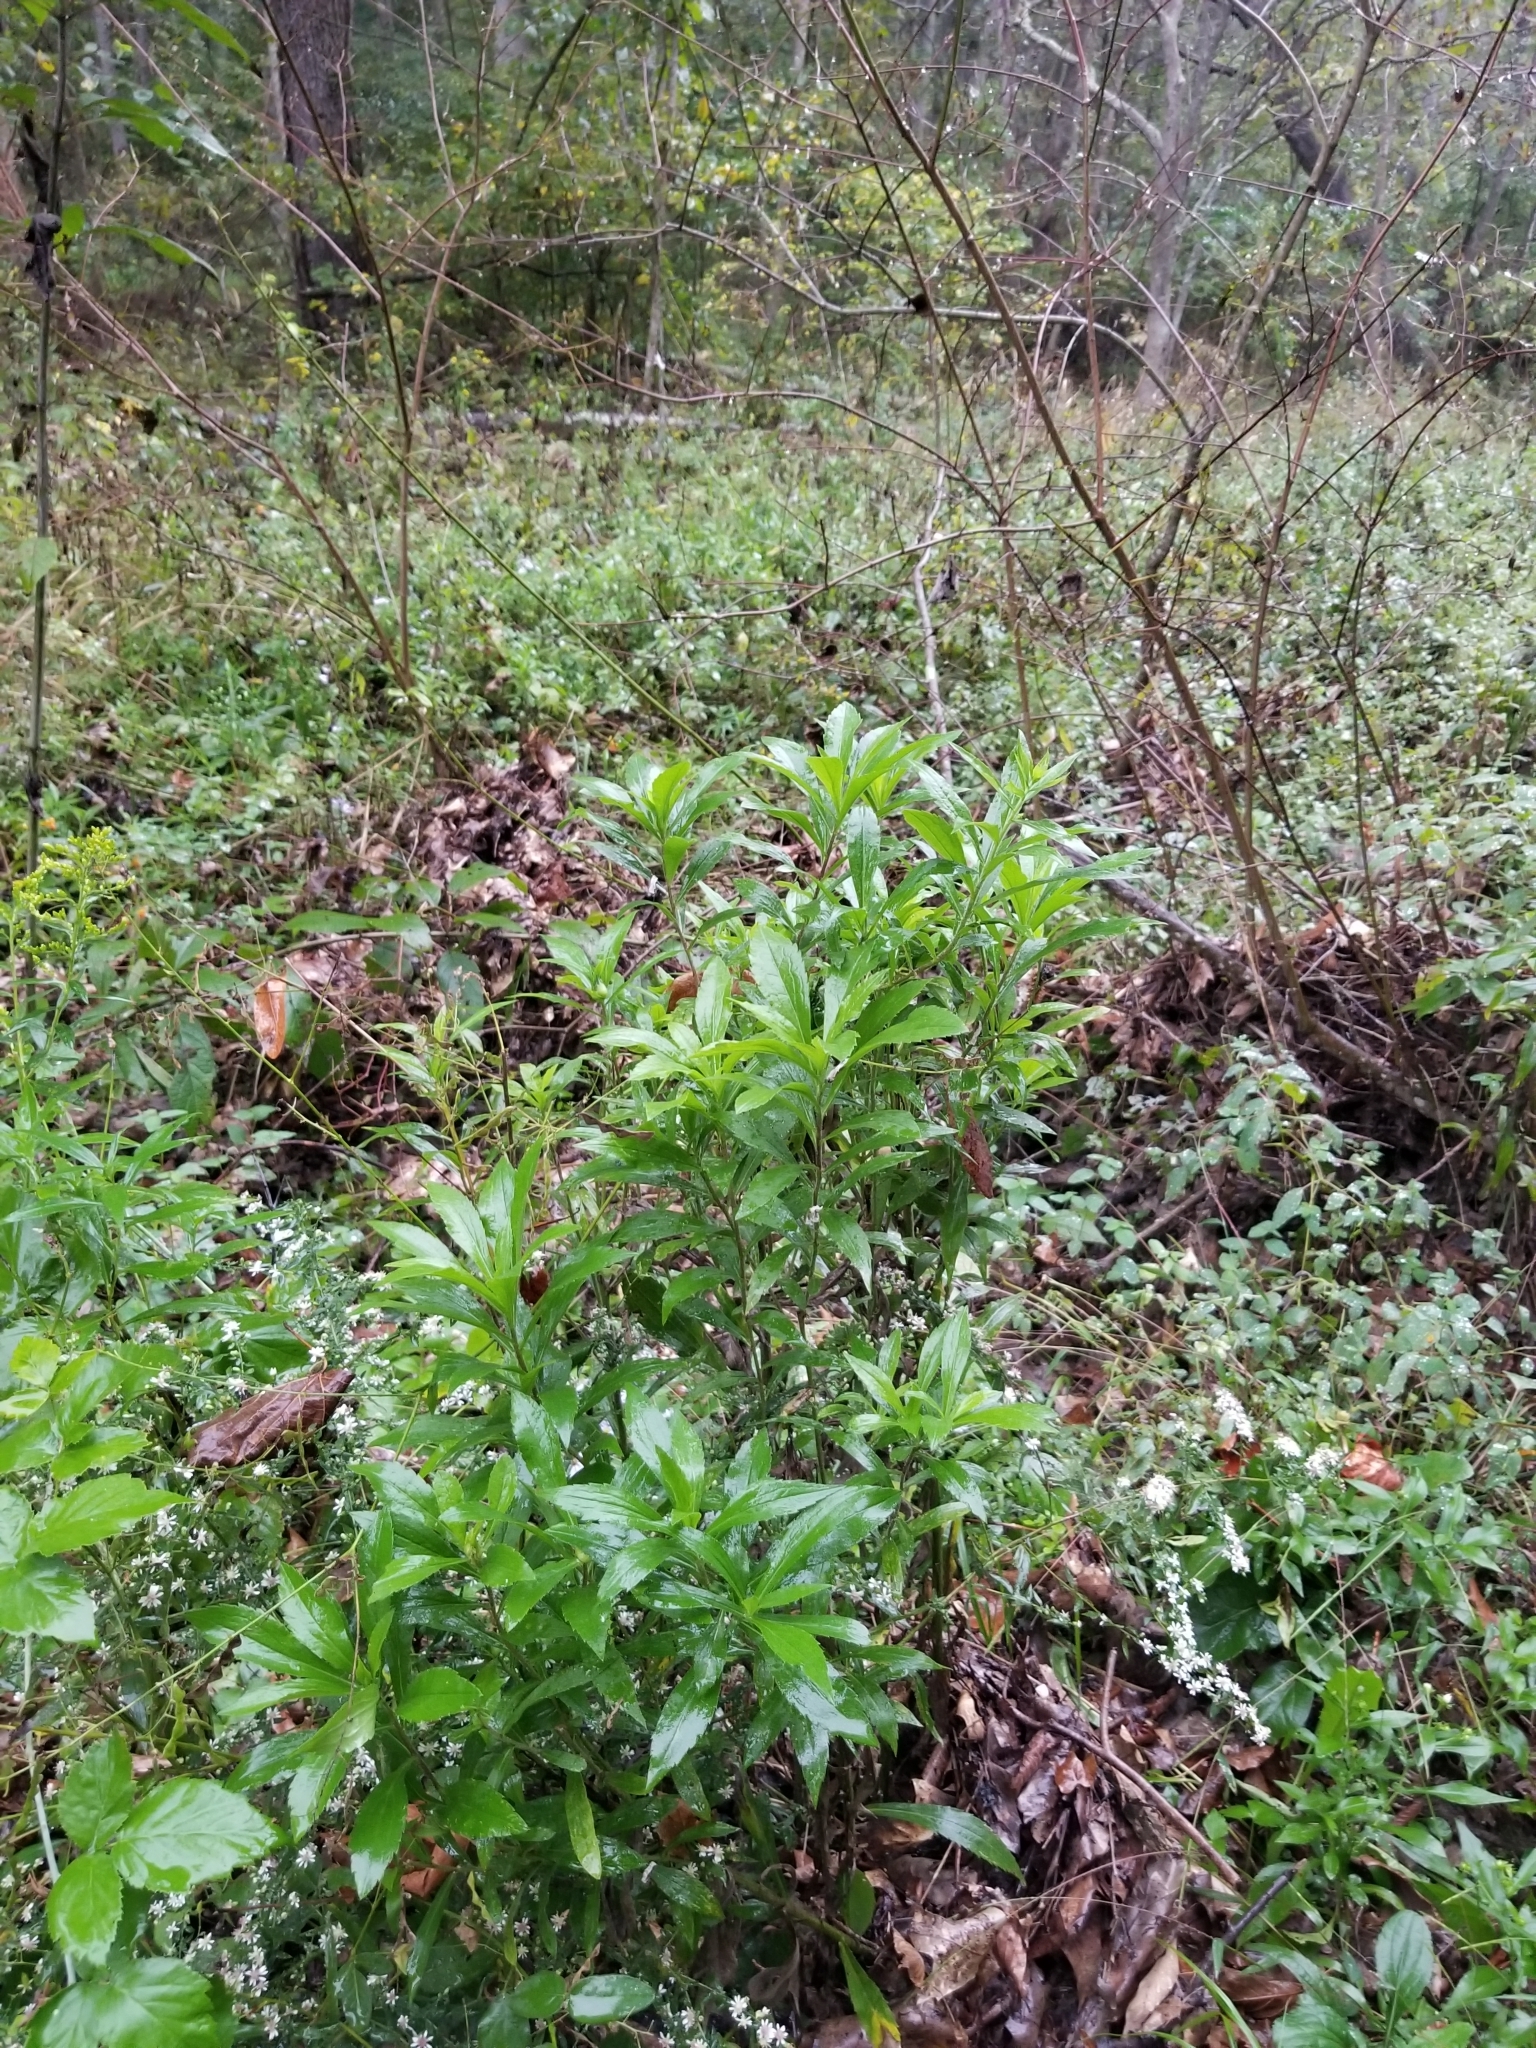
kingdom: Plantae
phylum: Tracheophyta
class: Magnoliopsida
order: Asterales
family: Asteraceae
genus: Solidago
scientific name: Solidago canadensis
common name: Canada goldenrod
